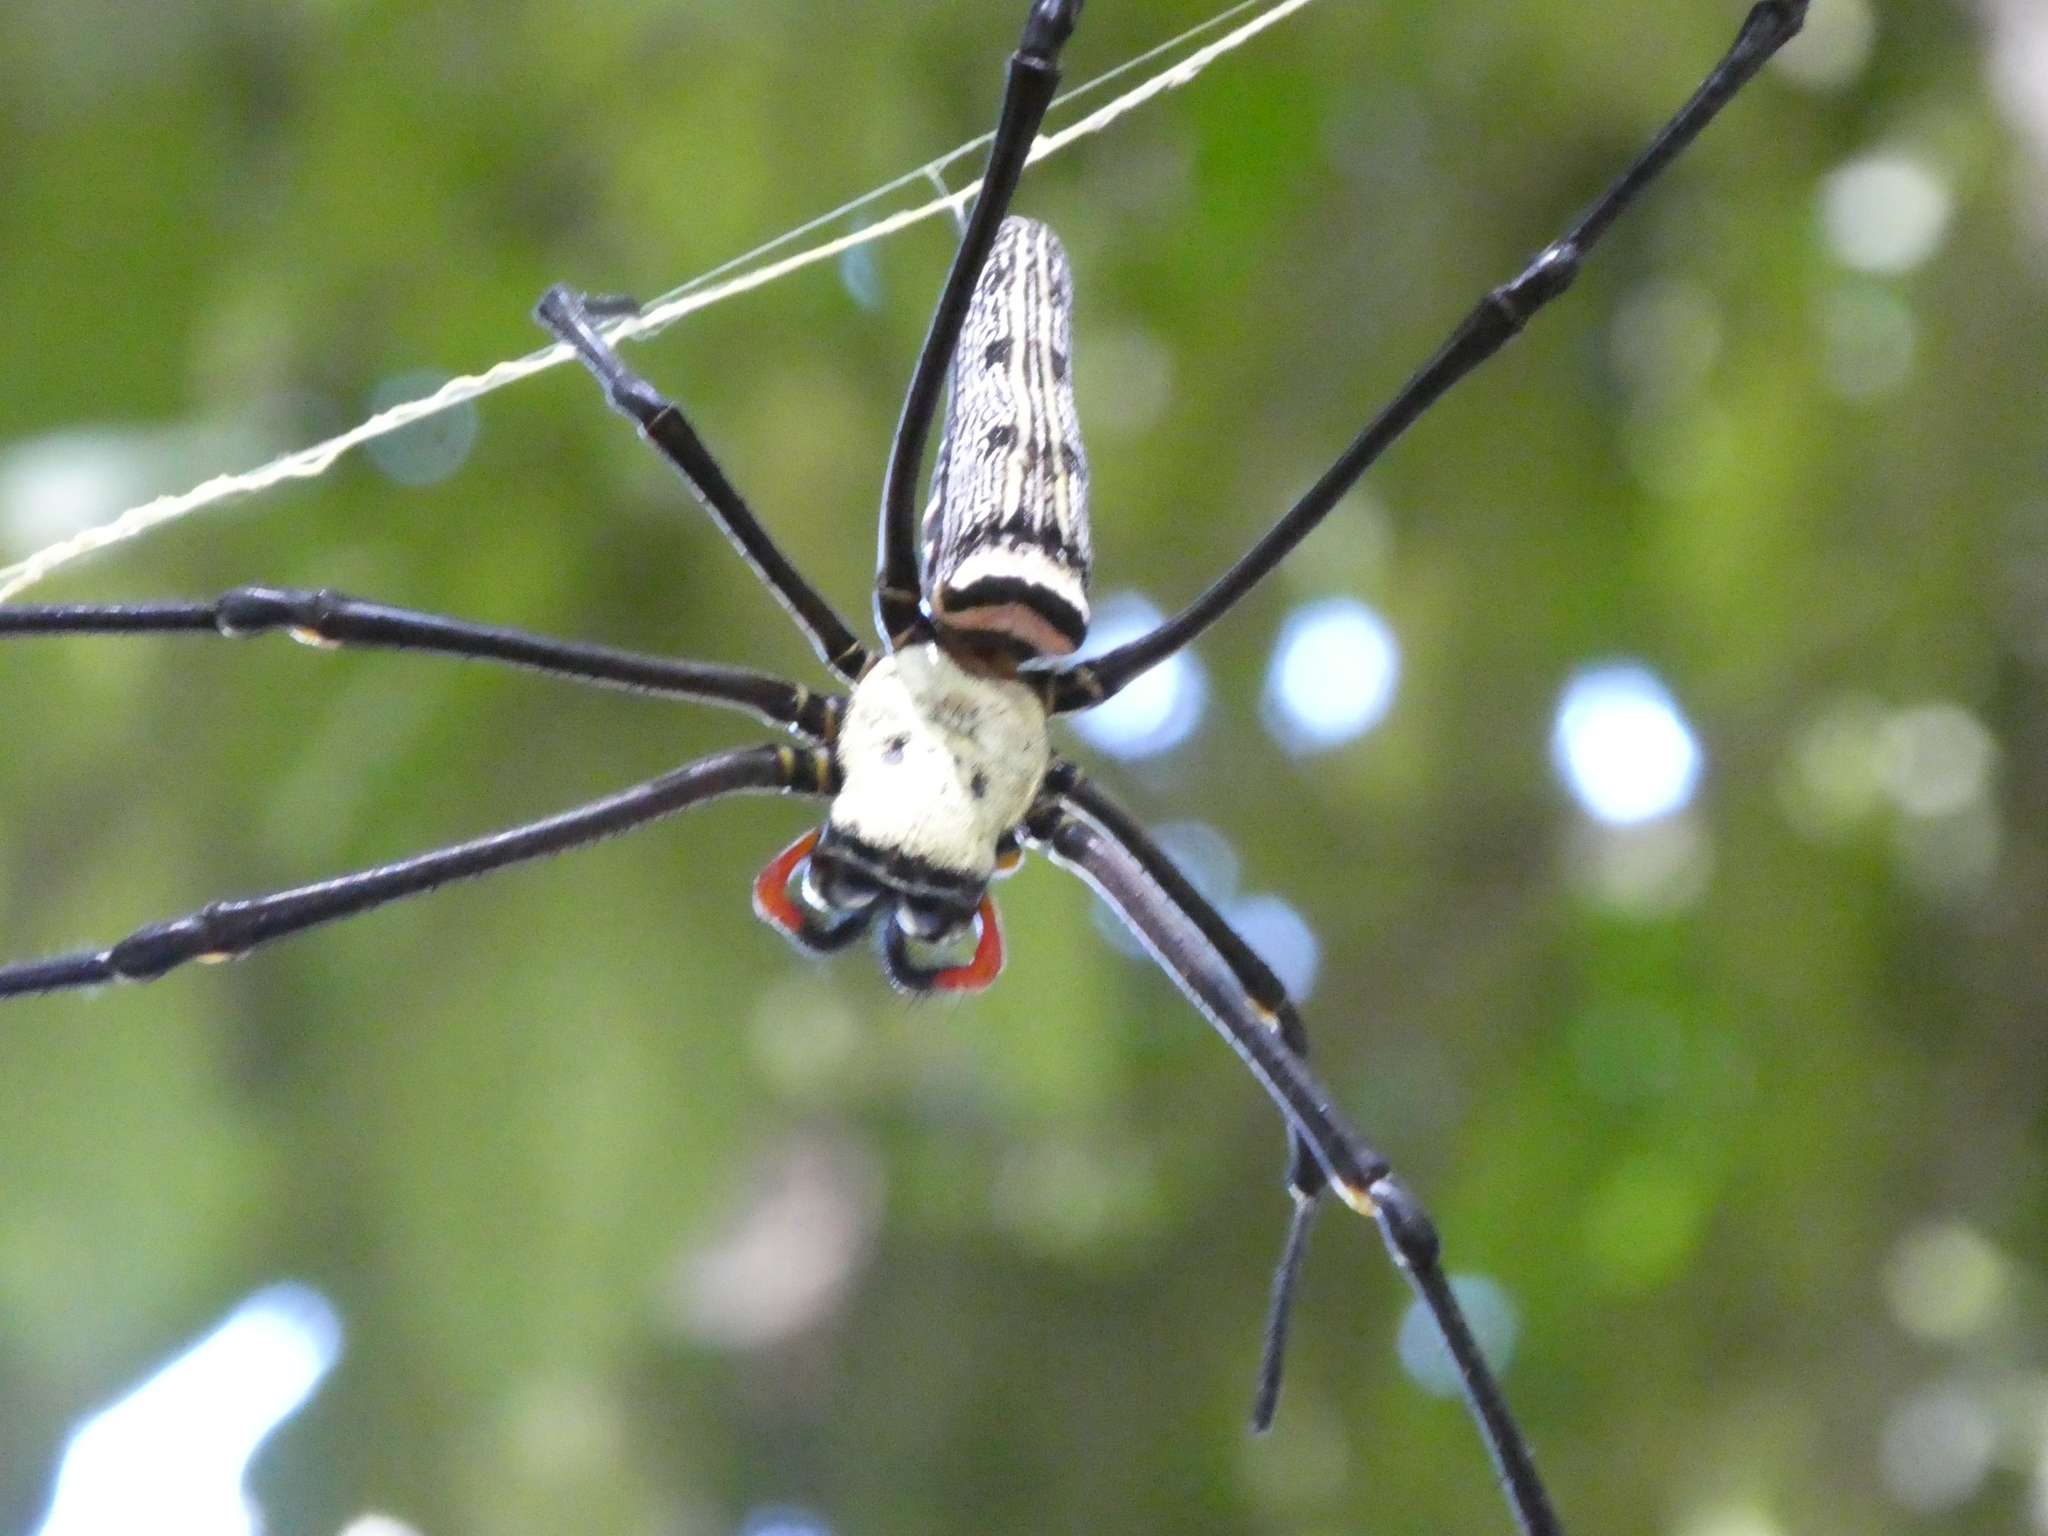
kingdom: Animalia
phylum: Arthropoda
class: Arachnida
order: Araneae
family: Araneidae
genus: Nephila
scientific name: Nephila pilipes
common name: Giant golden orb weaver
